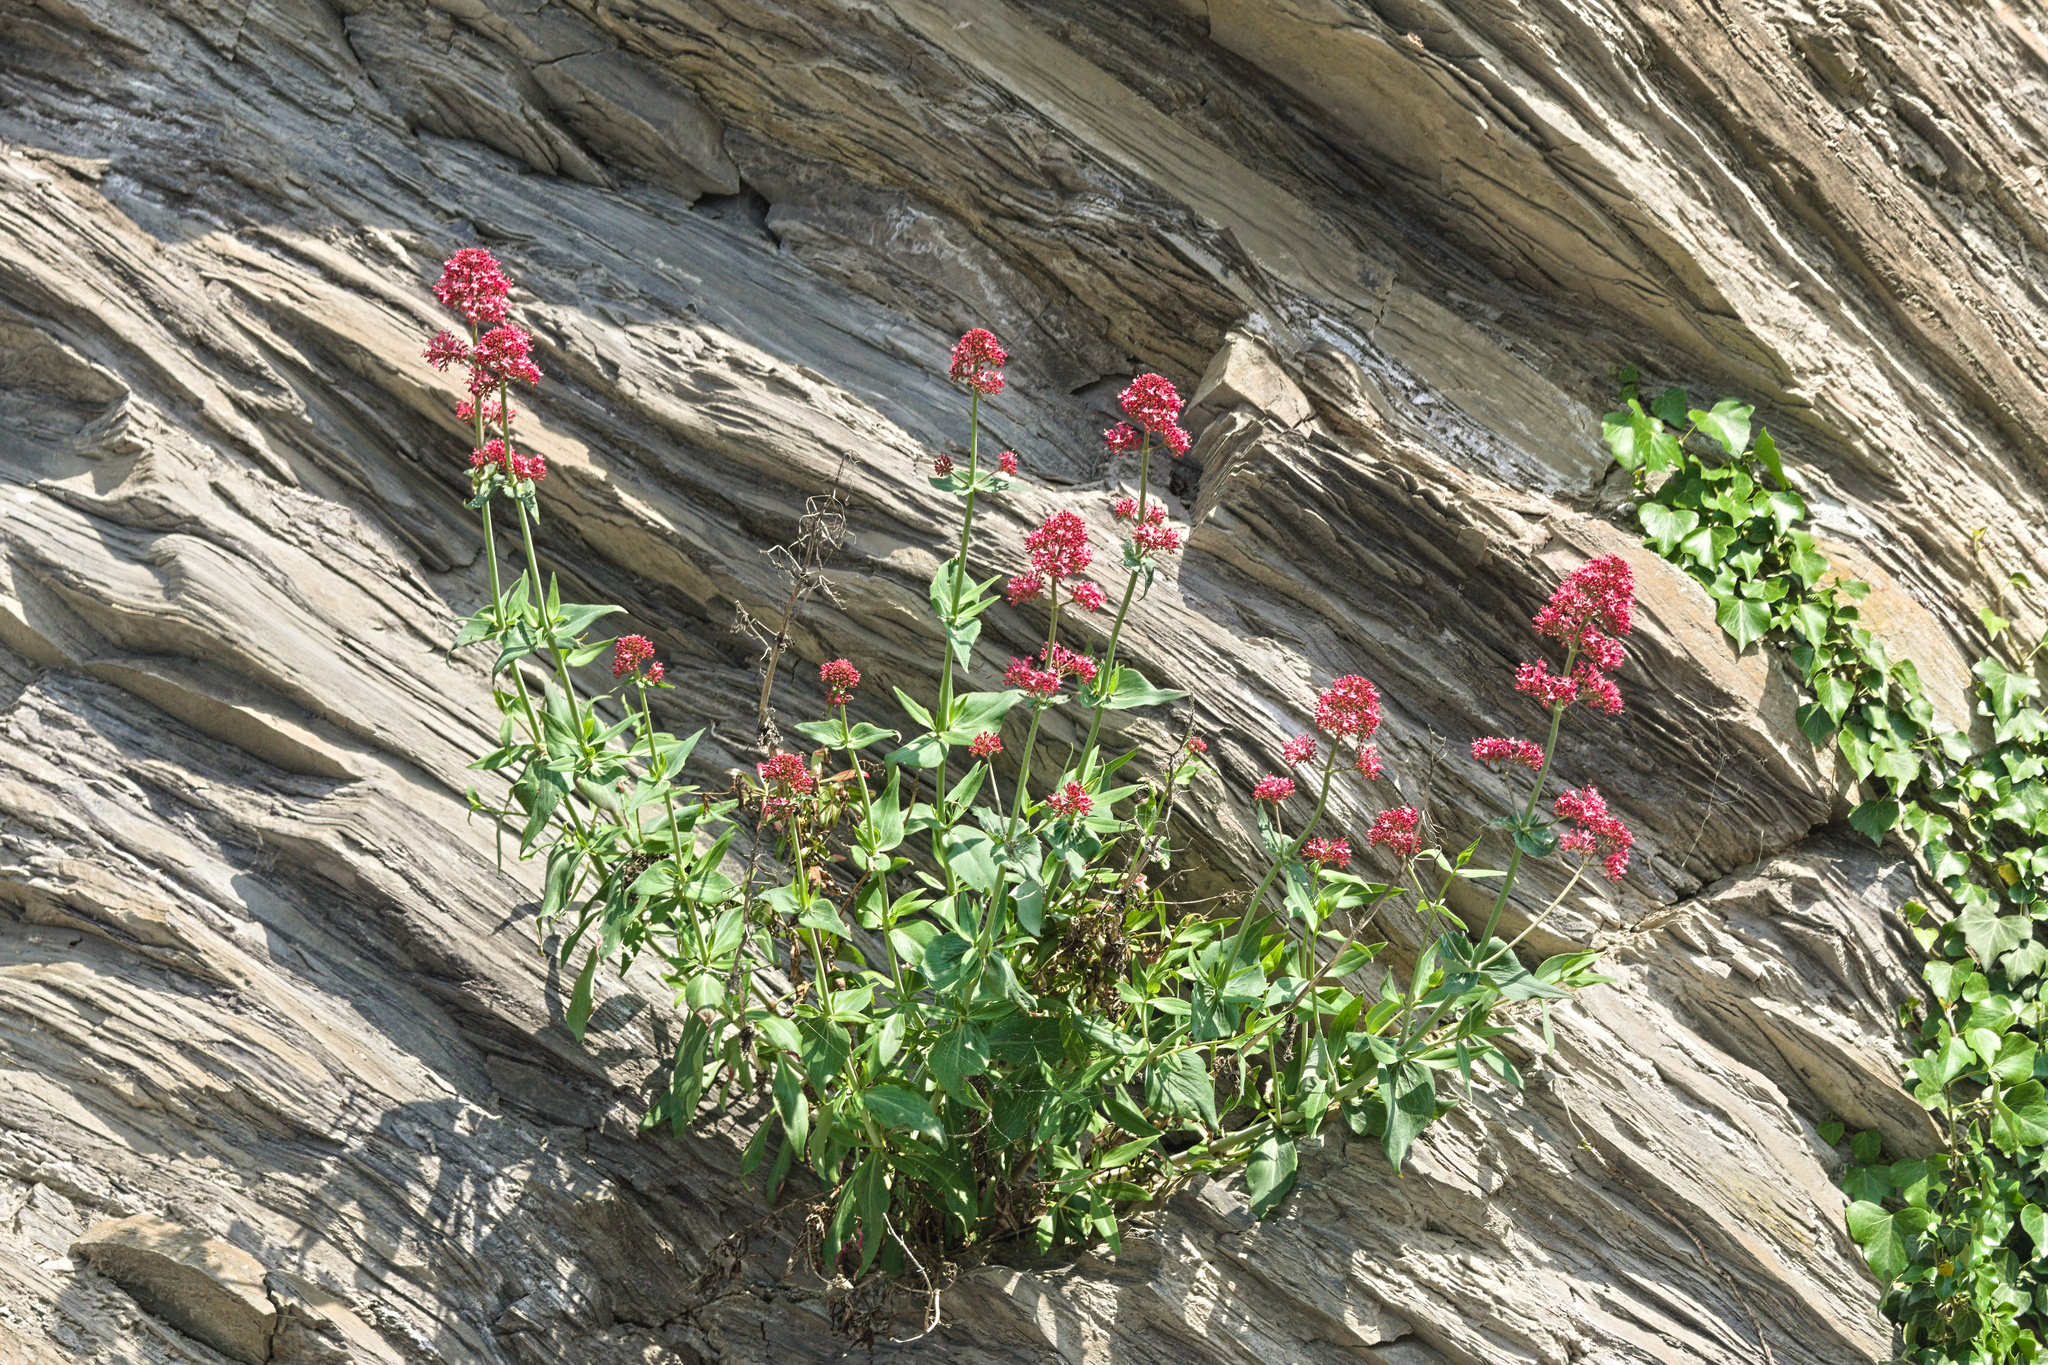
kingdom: Plantae
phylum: Tracheophyta
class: Magnoliopsida
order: Dipsacales
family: Caprifoliaceae
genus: Centranthus
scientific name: Centranthus ruber
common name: Red valerian
